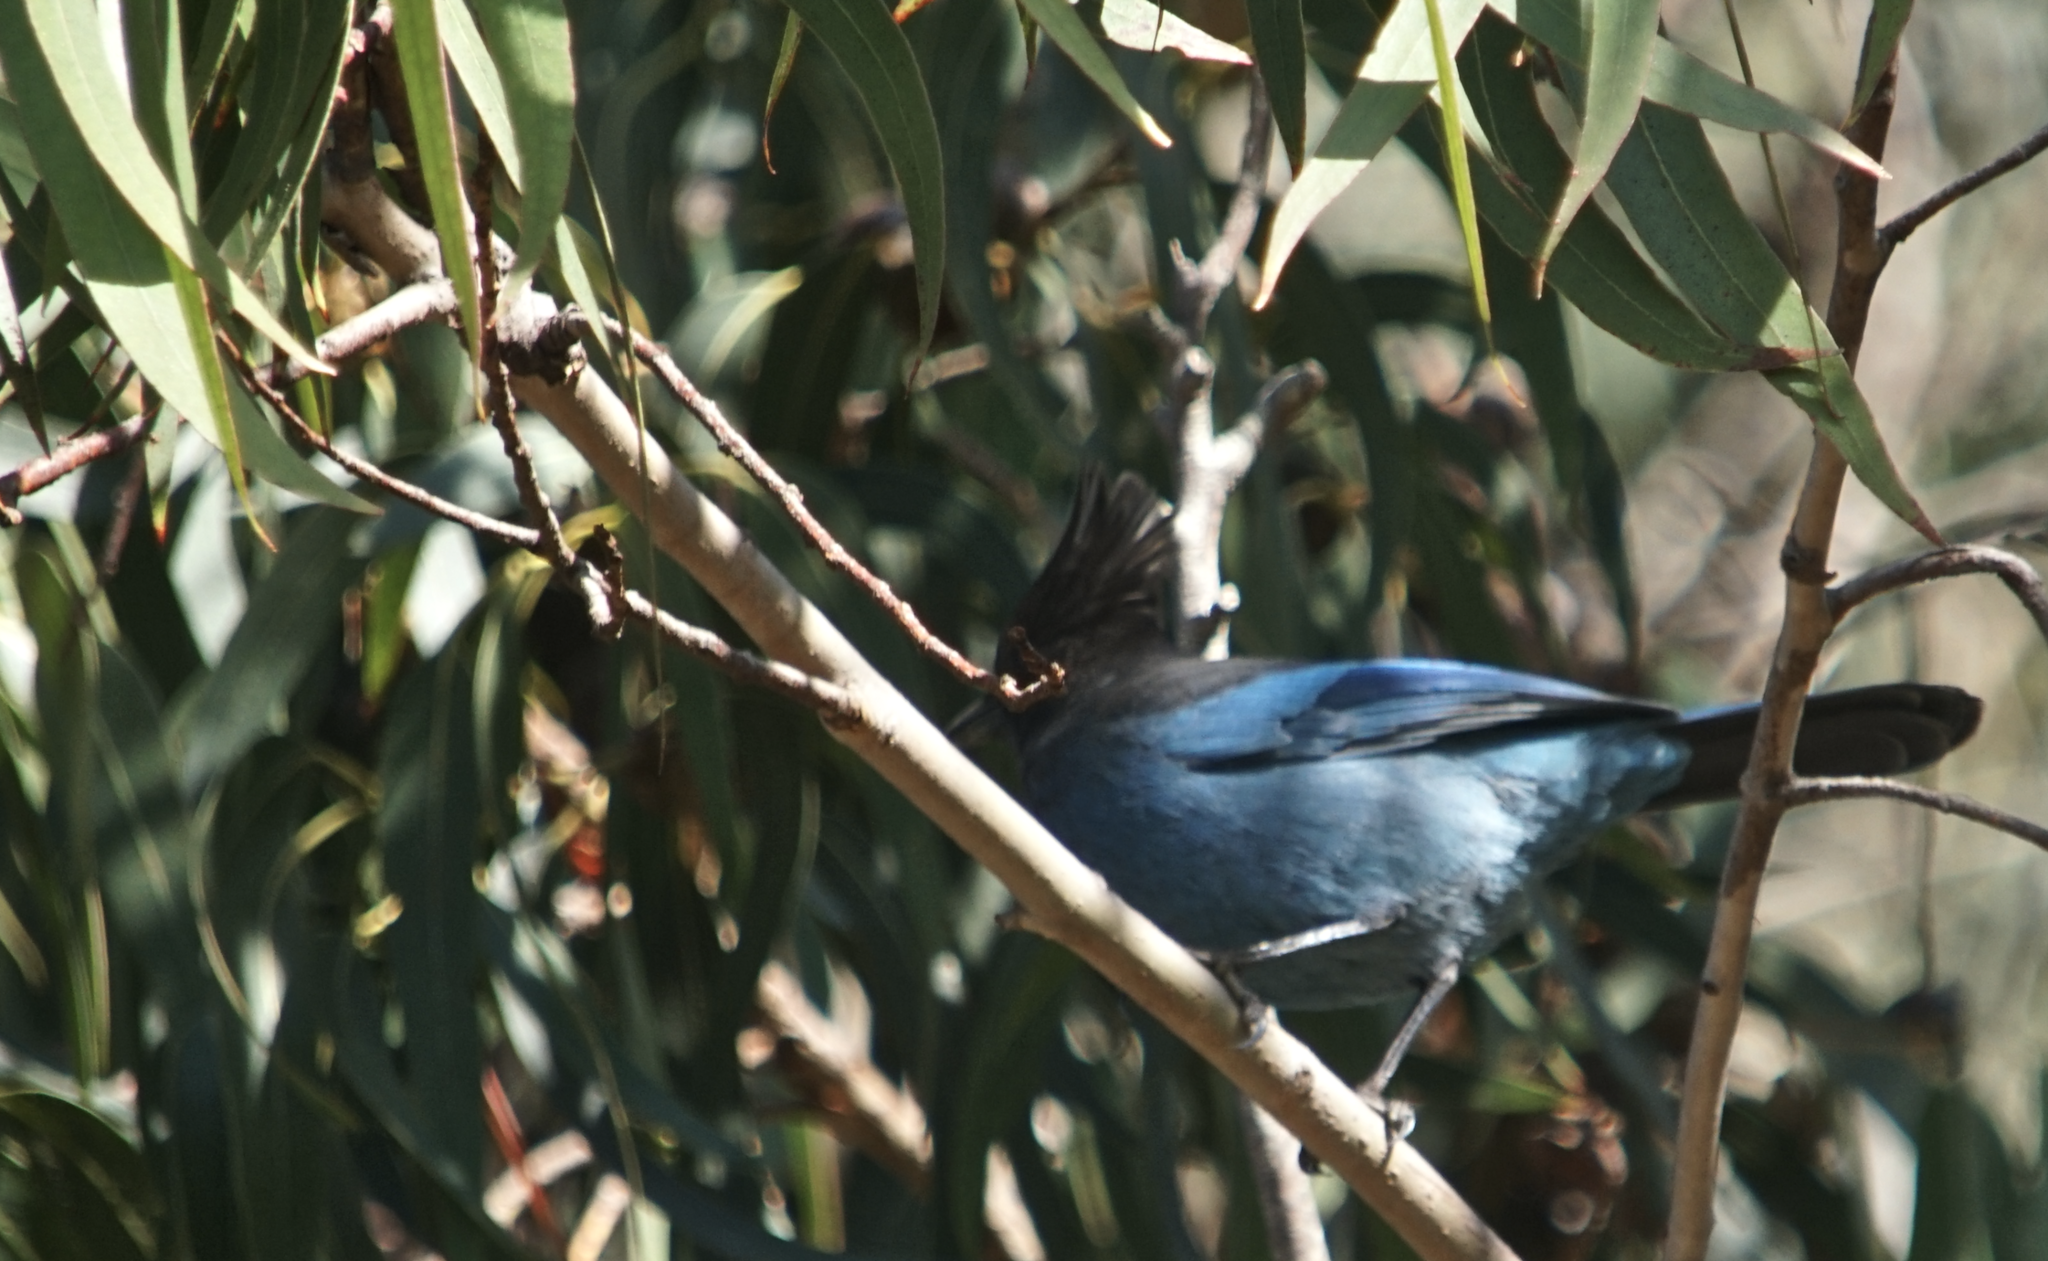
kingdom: Animalia
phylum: Chordata
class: Aves
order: Passeriformes
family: Corvidae
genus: Cyanocitta
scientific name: Cyanocitta stelleri
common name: Steller's jay
